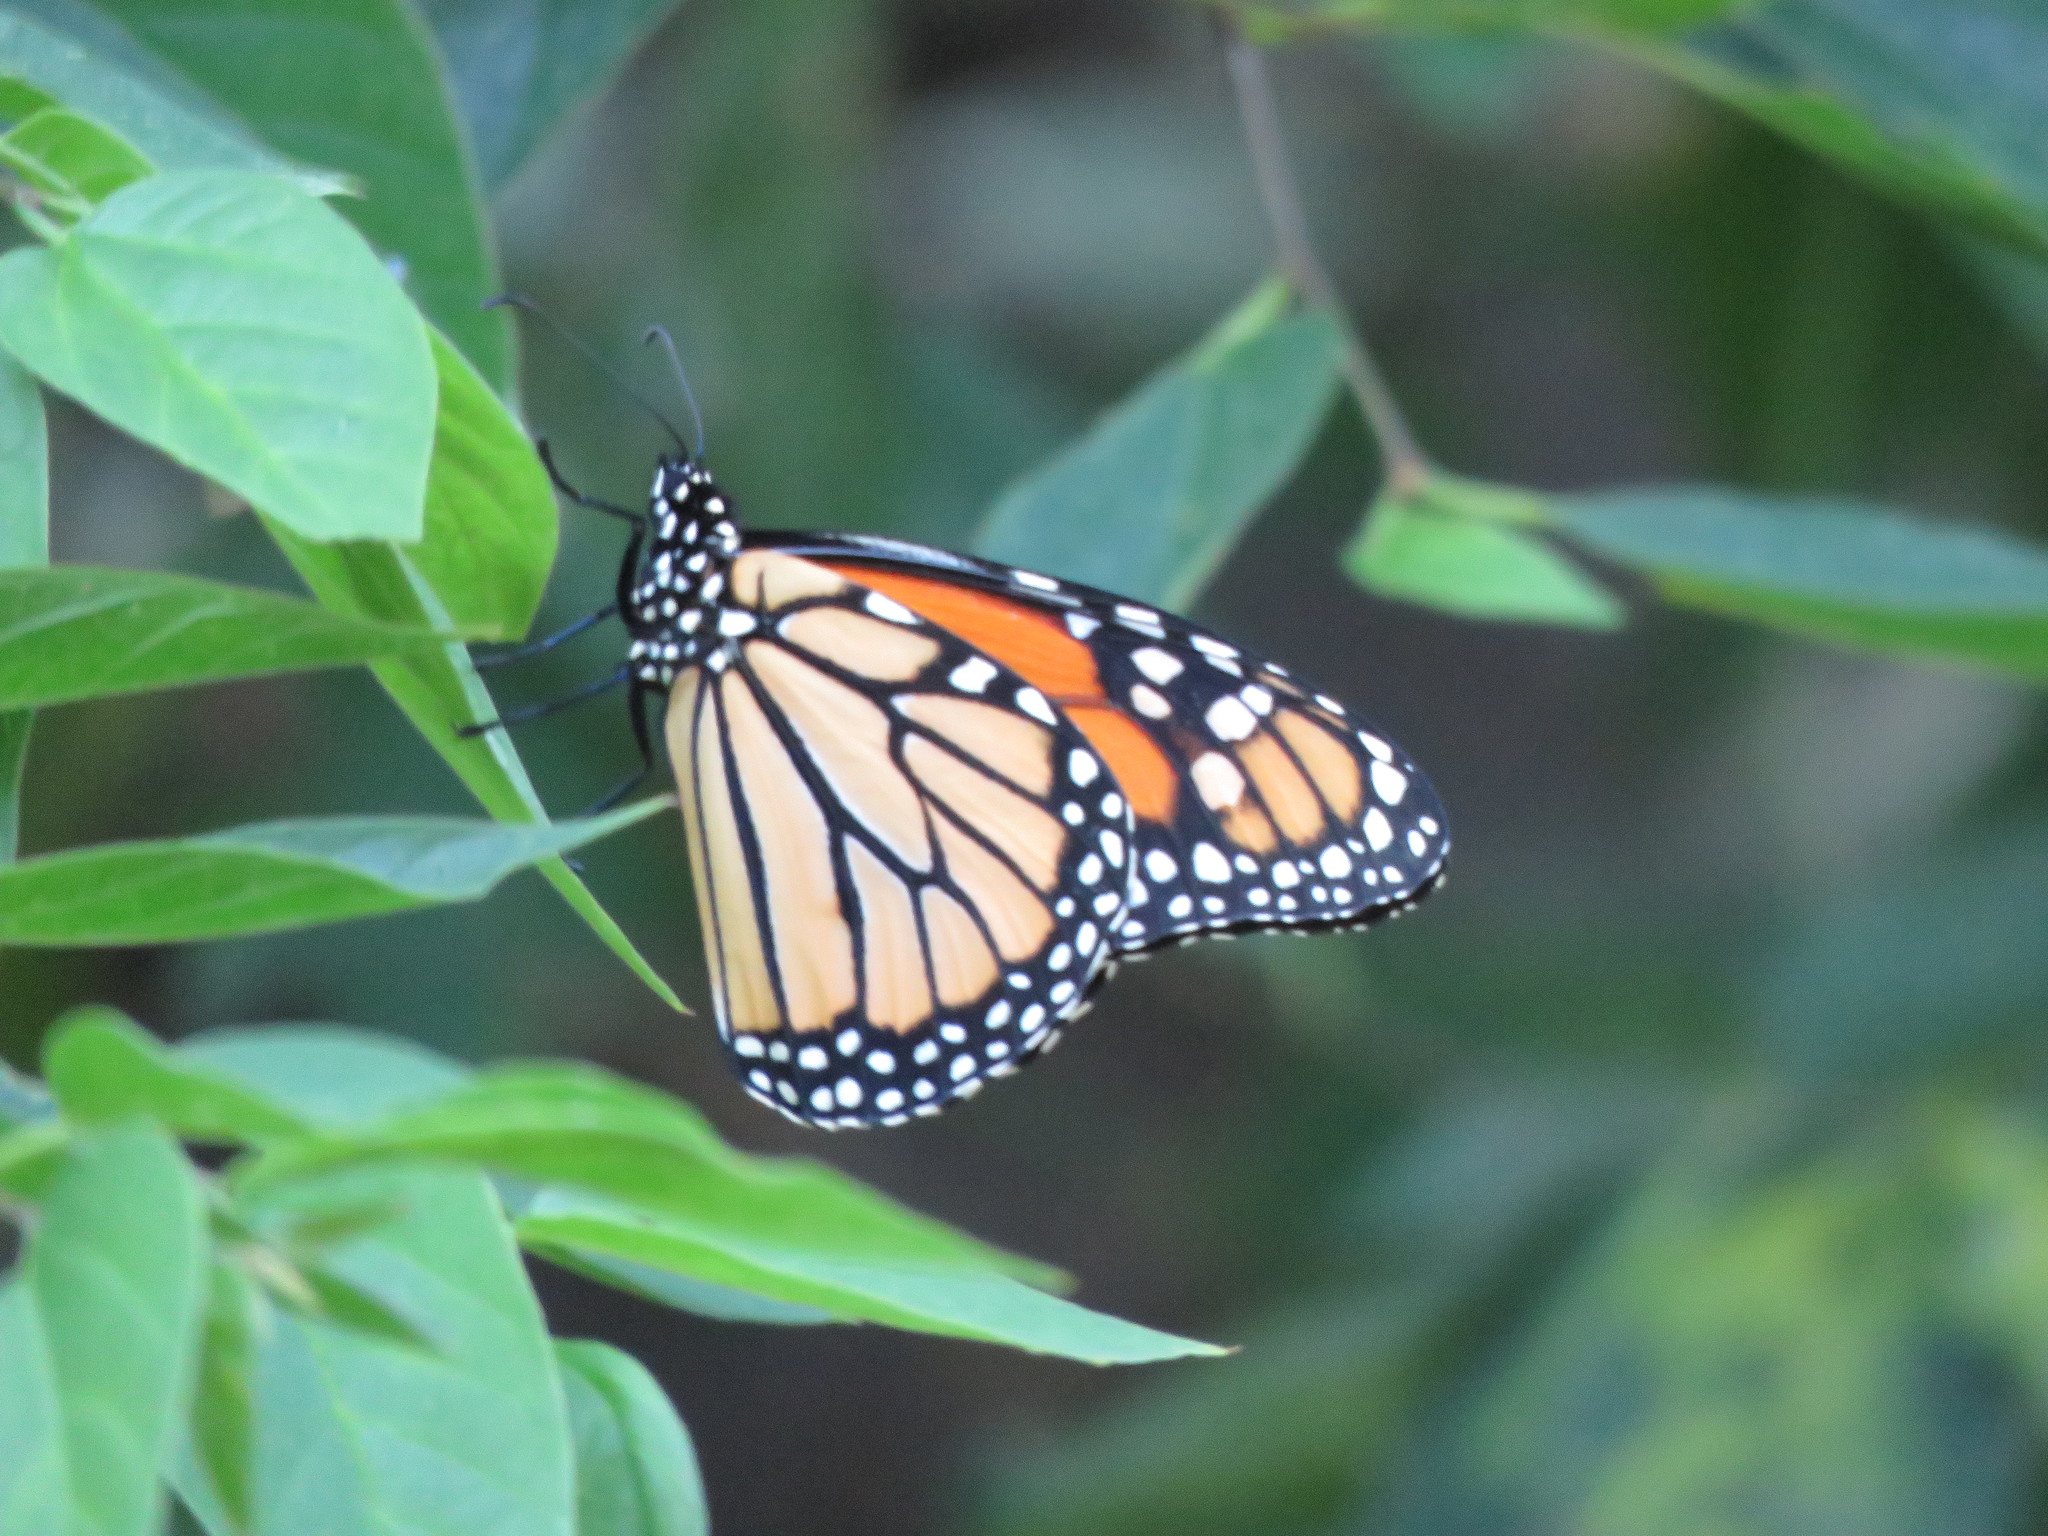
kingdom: Animalia
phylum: Arthropoda
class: Insecta
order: Lepidoptera
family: Nymphalidae
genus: Danaus
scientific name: Danaus plexippus
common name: Monarch
